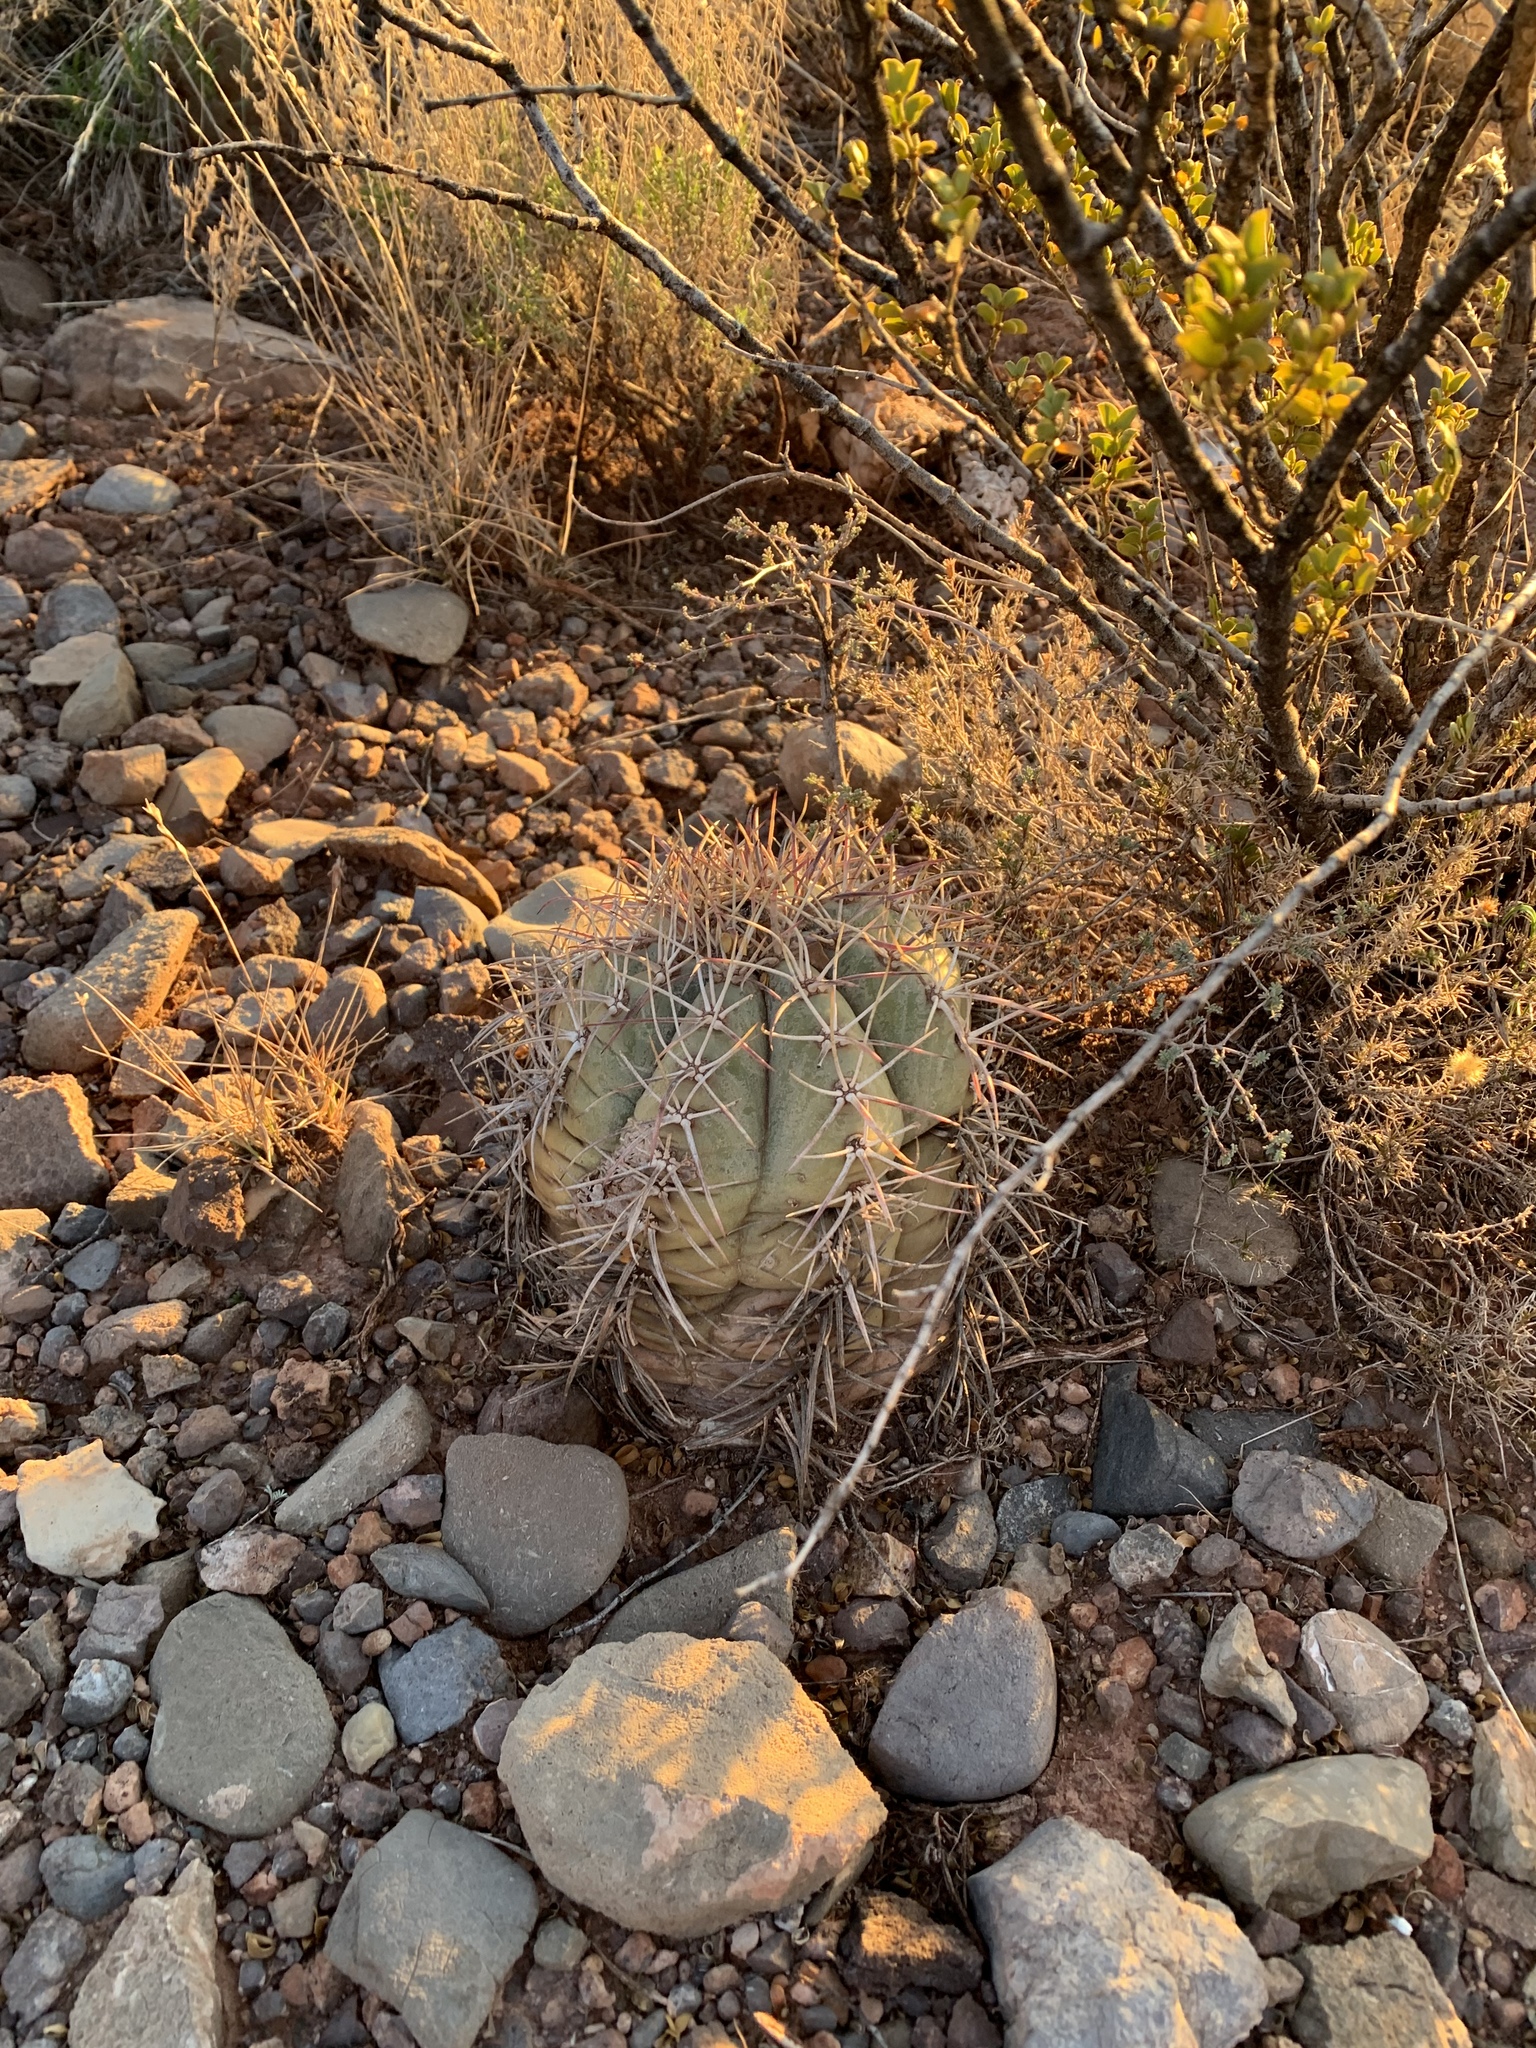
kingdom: Plantae
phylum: Tracheophyta
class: Magnoliopsida
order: Caryophyllales
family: Cactaceae
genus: Echinocactus
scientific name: Echinocactus horizonthalonius
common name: Devilshead
